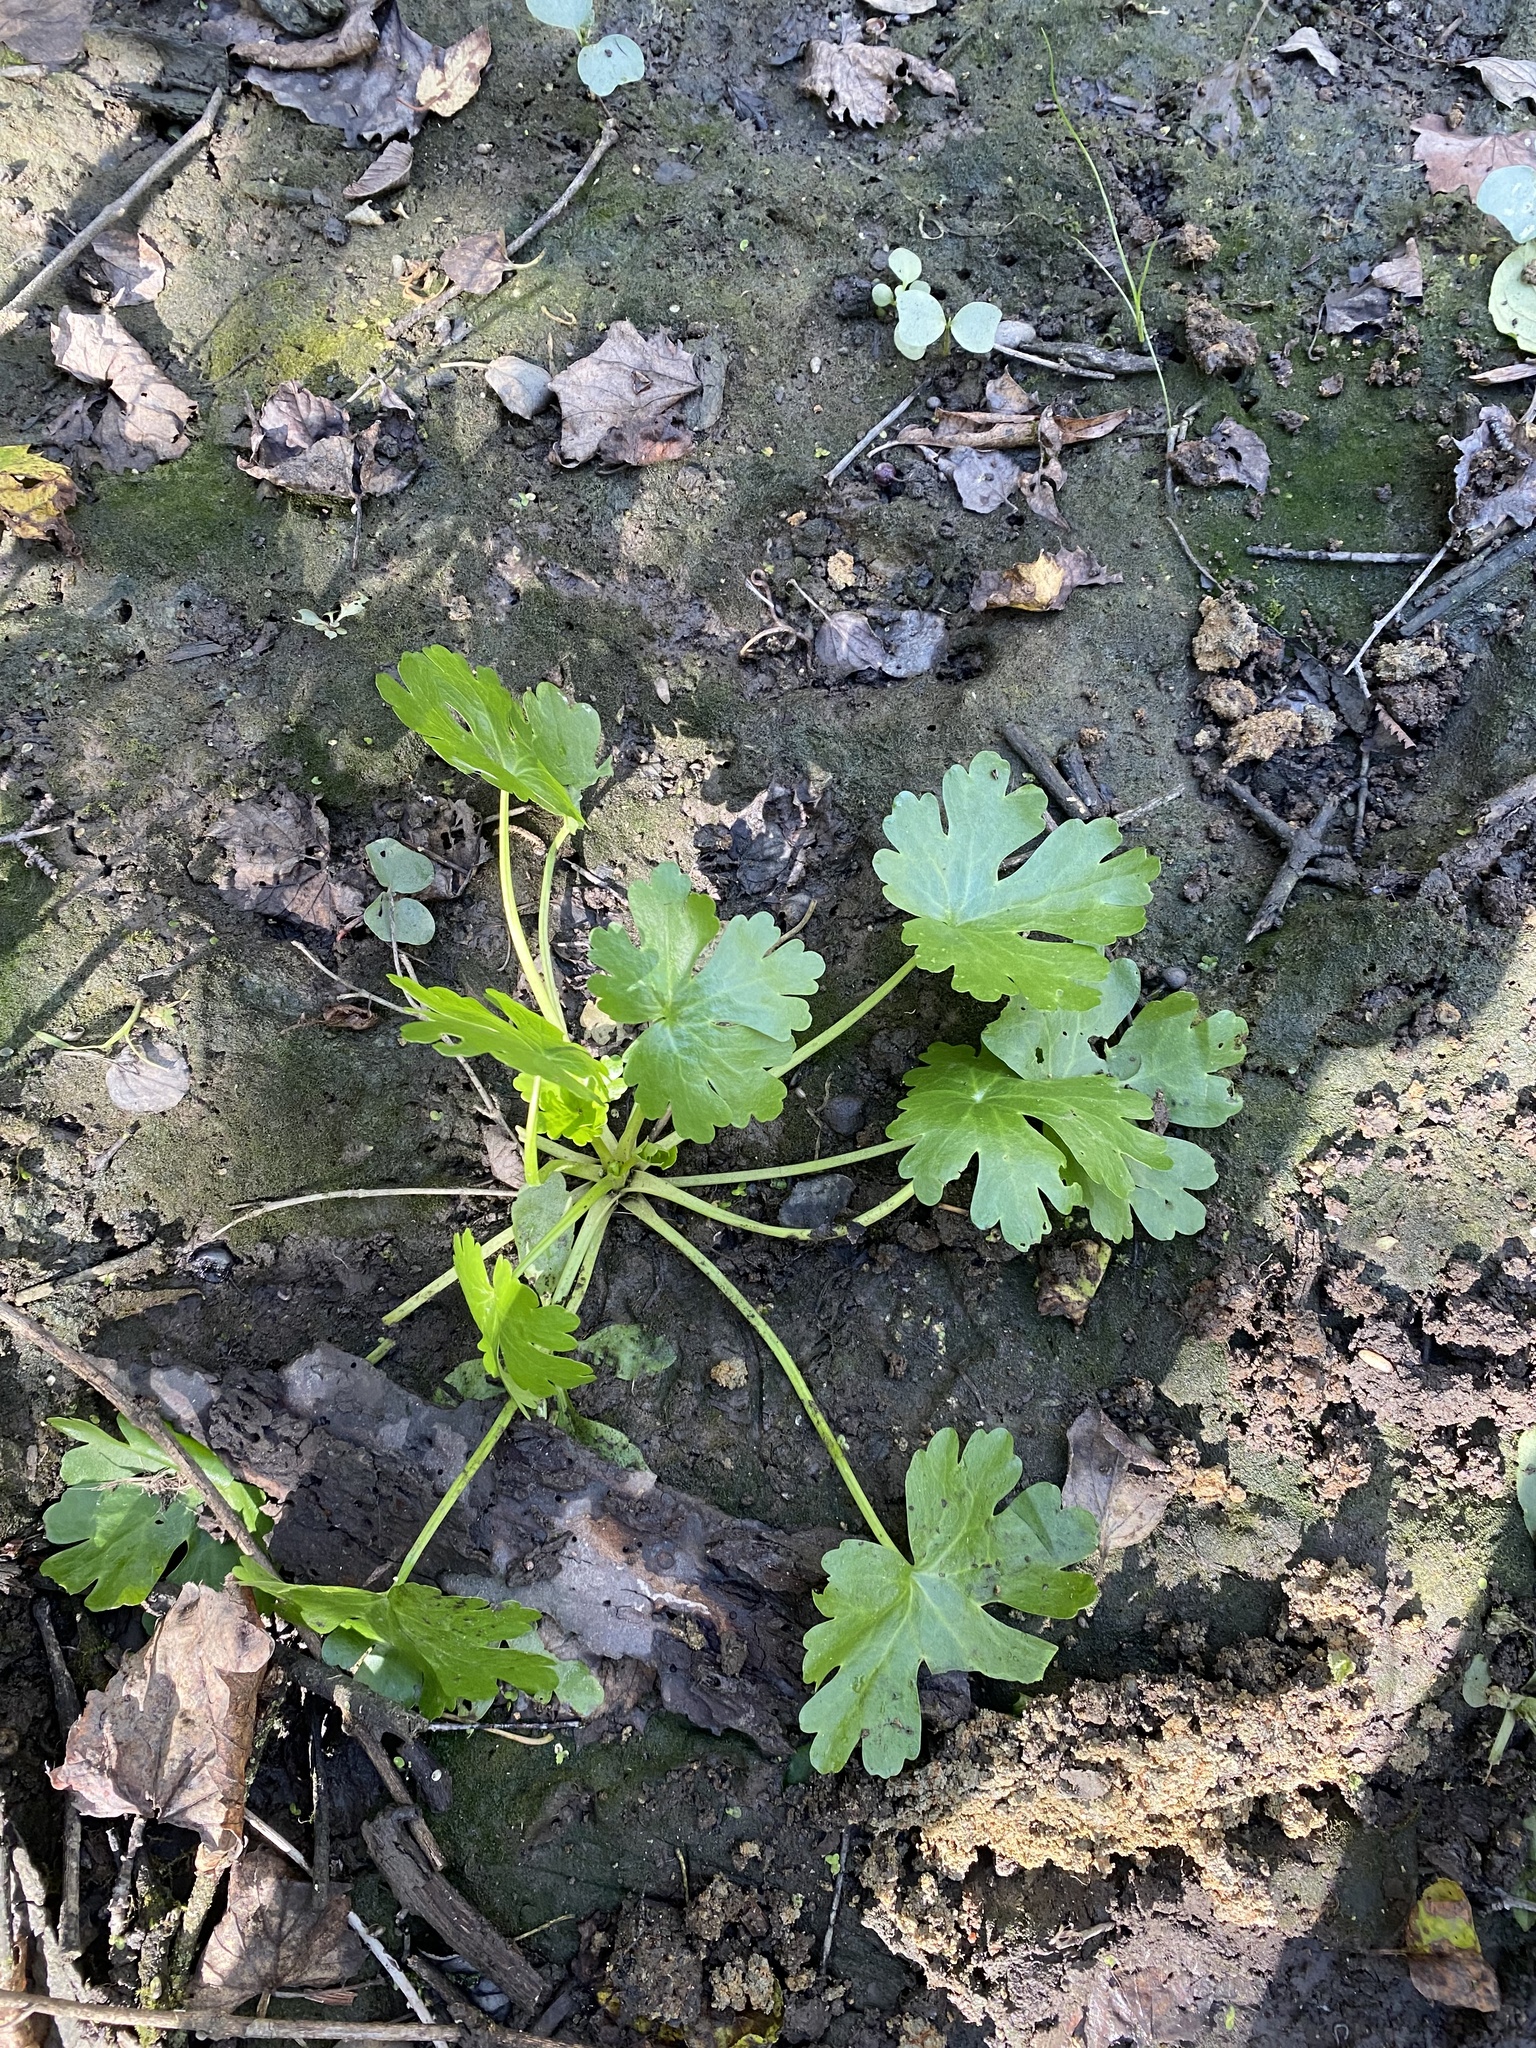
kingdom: Plantae
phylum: Tracheophyta
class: Magnoliopsida
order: Ranunculales
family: Ranunculaceae
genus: Ranunculus
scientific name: Ranunculus sceleratus
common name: Celery-leaved buttercup
